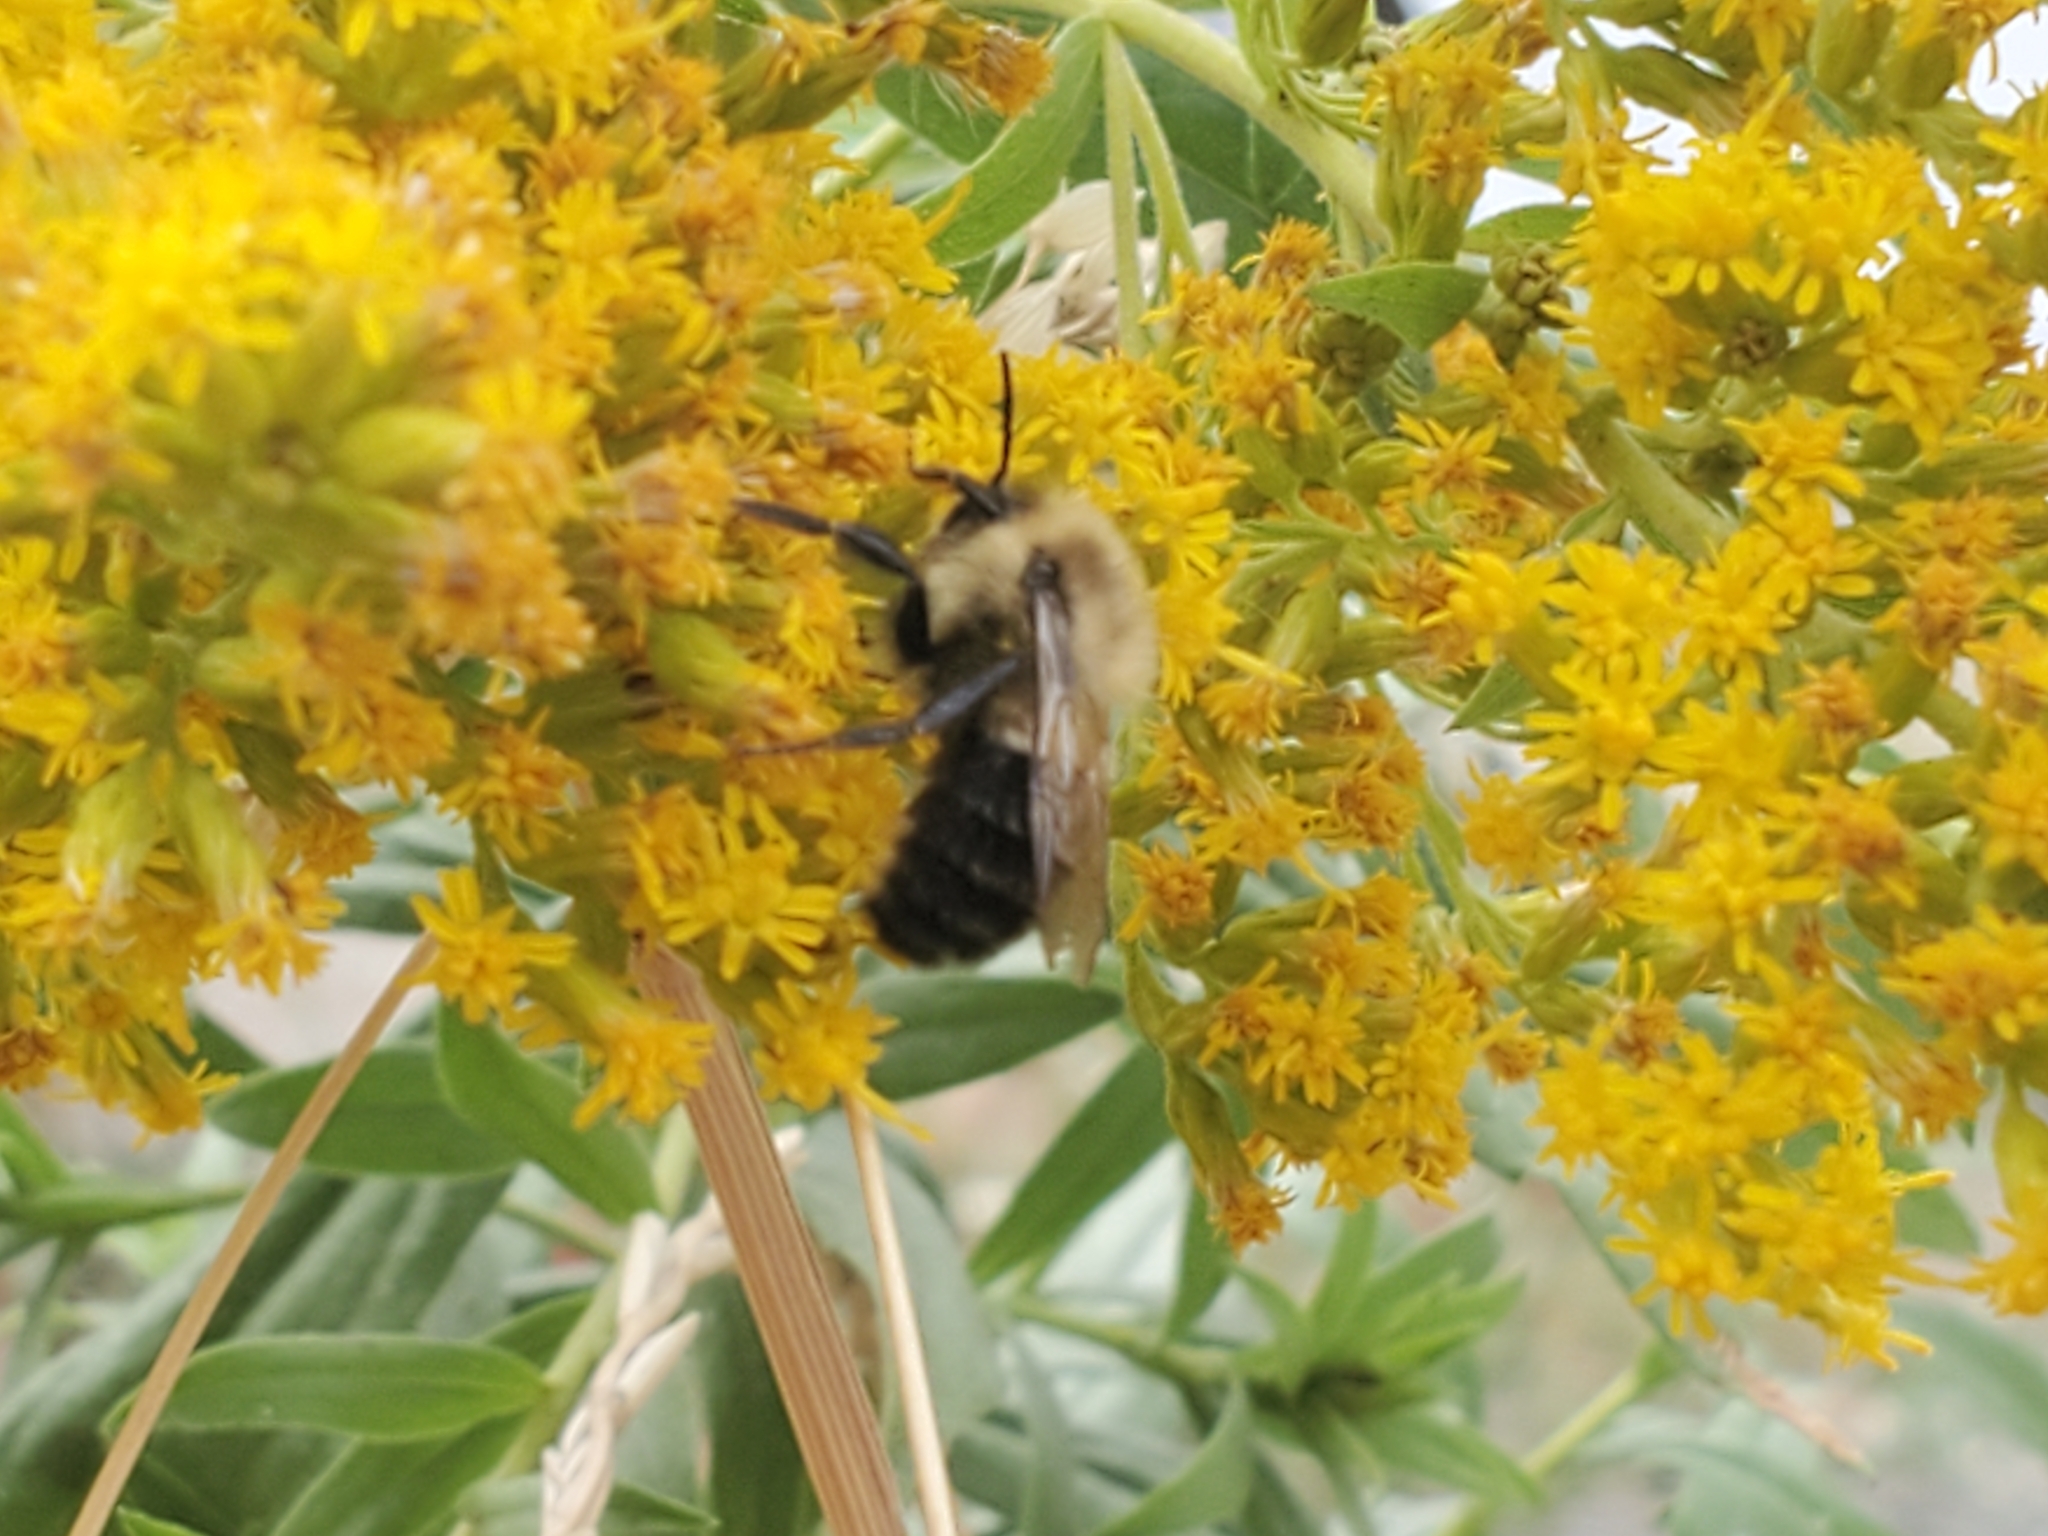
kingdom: Animalia
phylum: Arthropoda
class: Insecta
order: Hymenoptera
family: Apidae
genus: Bombus
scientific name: Bombus impatiens
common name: Common eastern bumble bee
